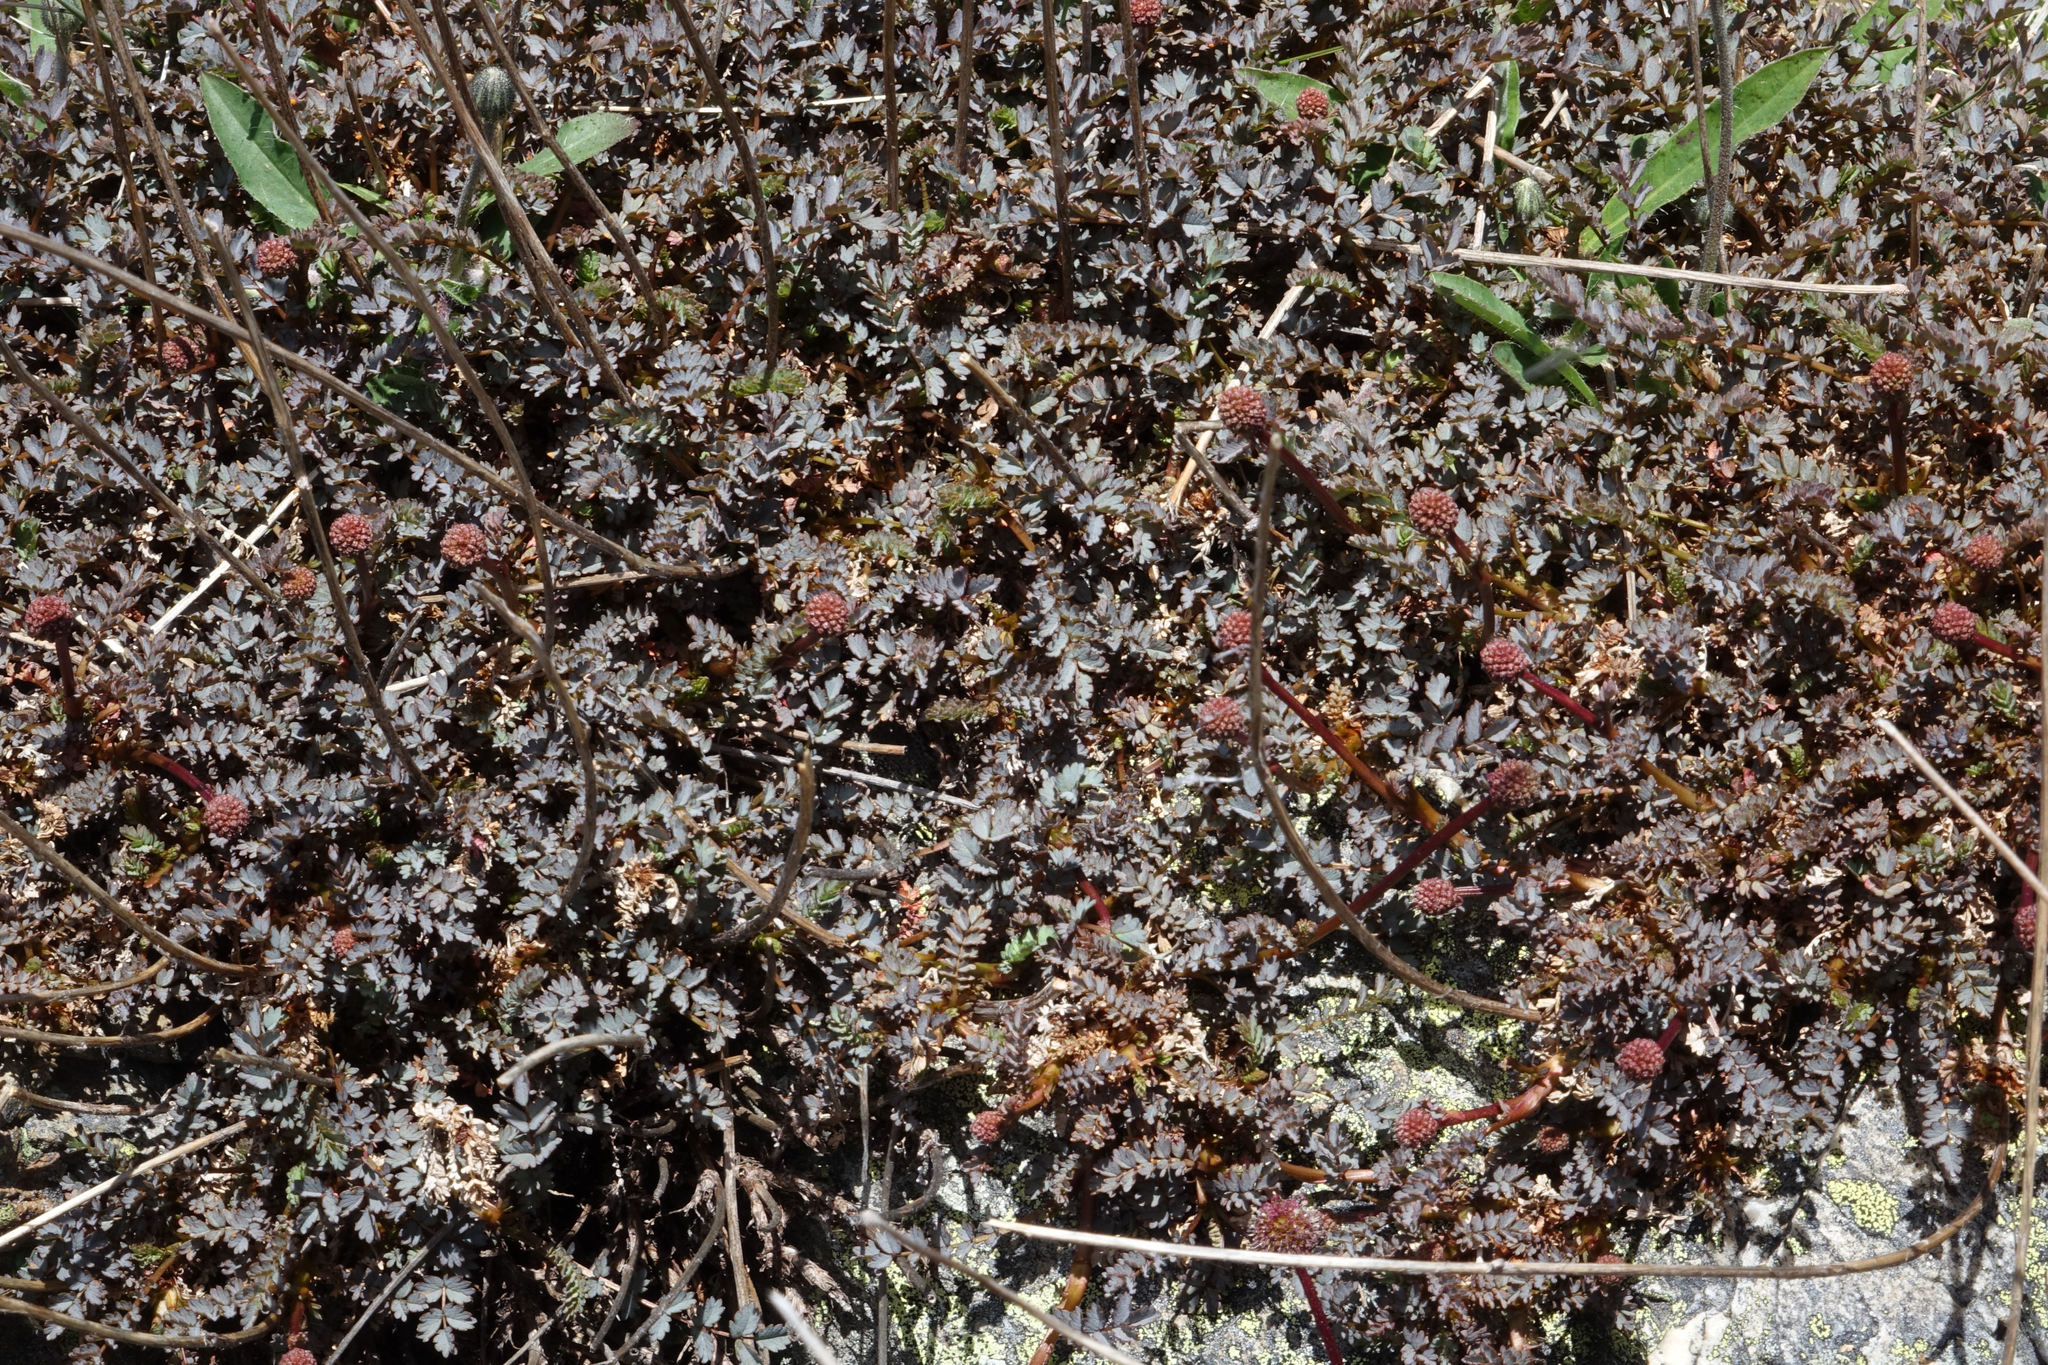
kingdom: Plantae
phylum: Tracheophyta
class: Magnoliopsida
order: Rosales
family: Rosaceae
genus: Acaena
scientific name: Acaena saccaticupula
